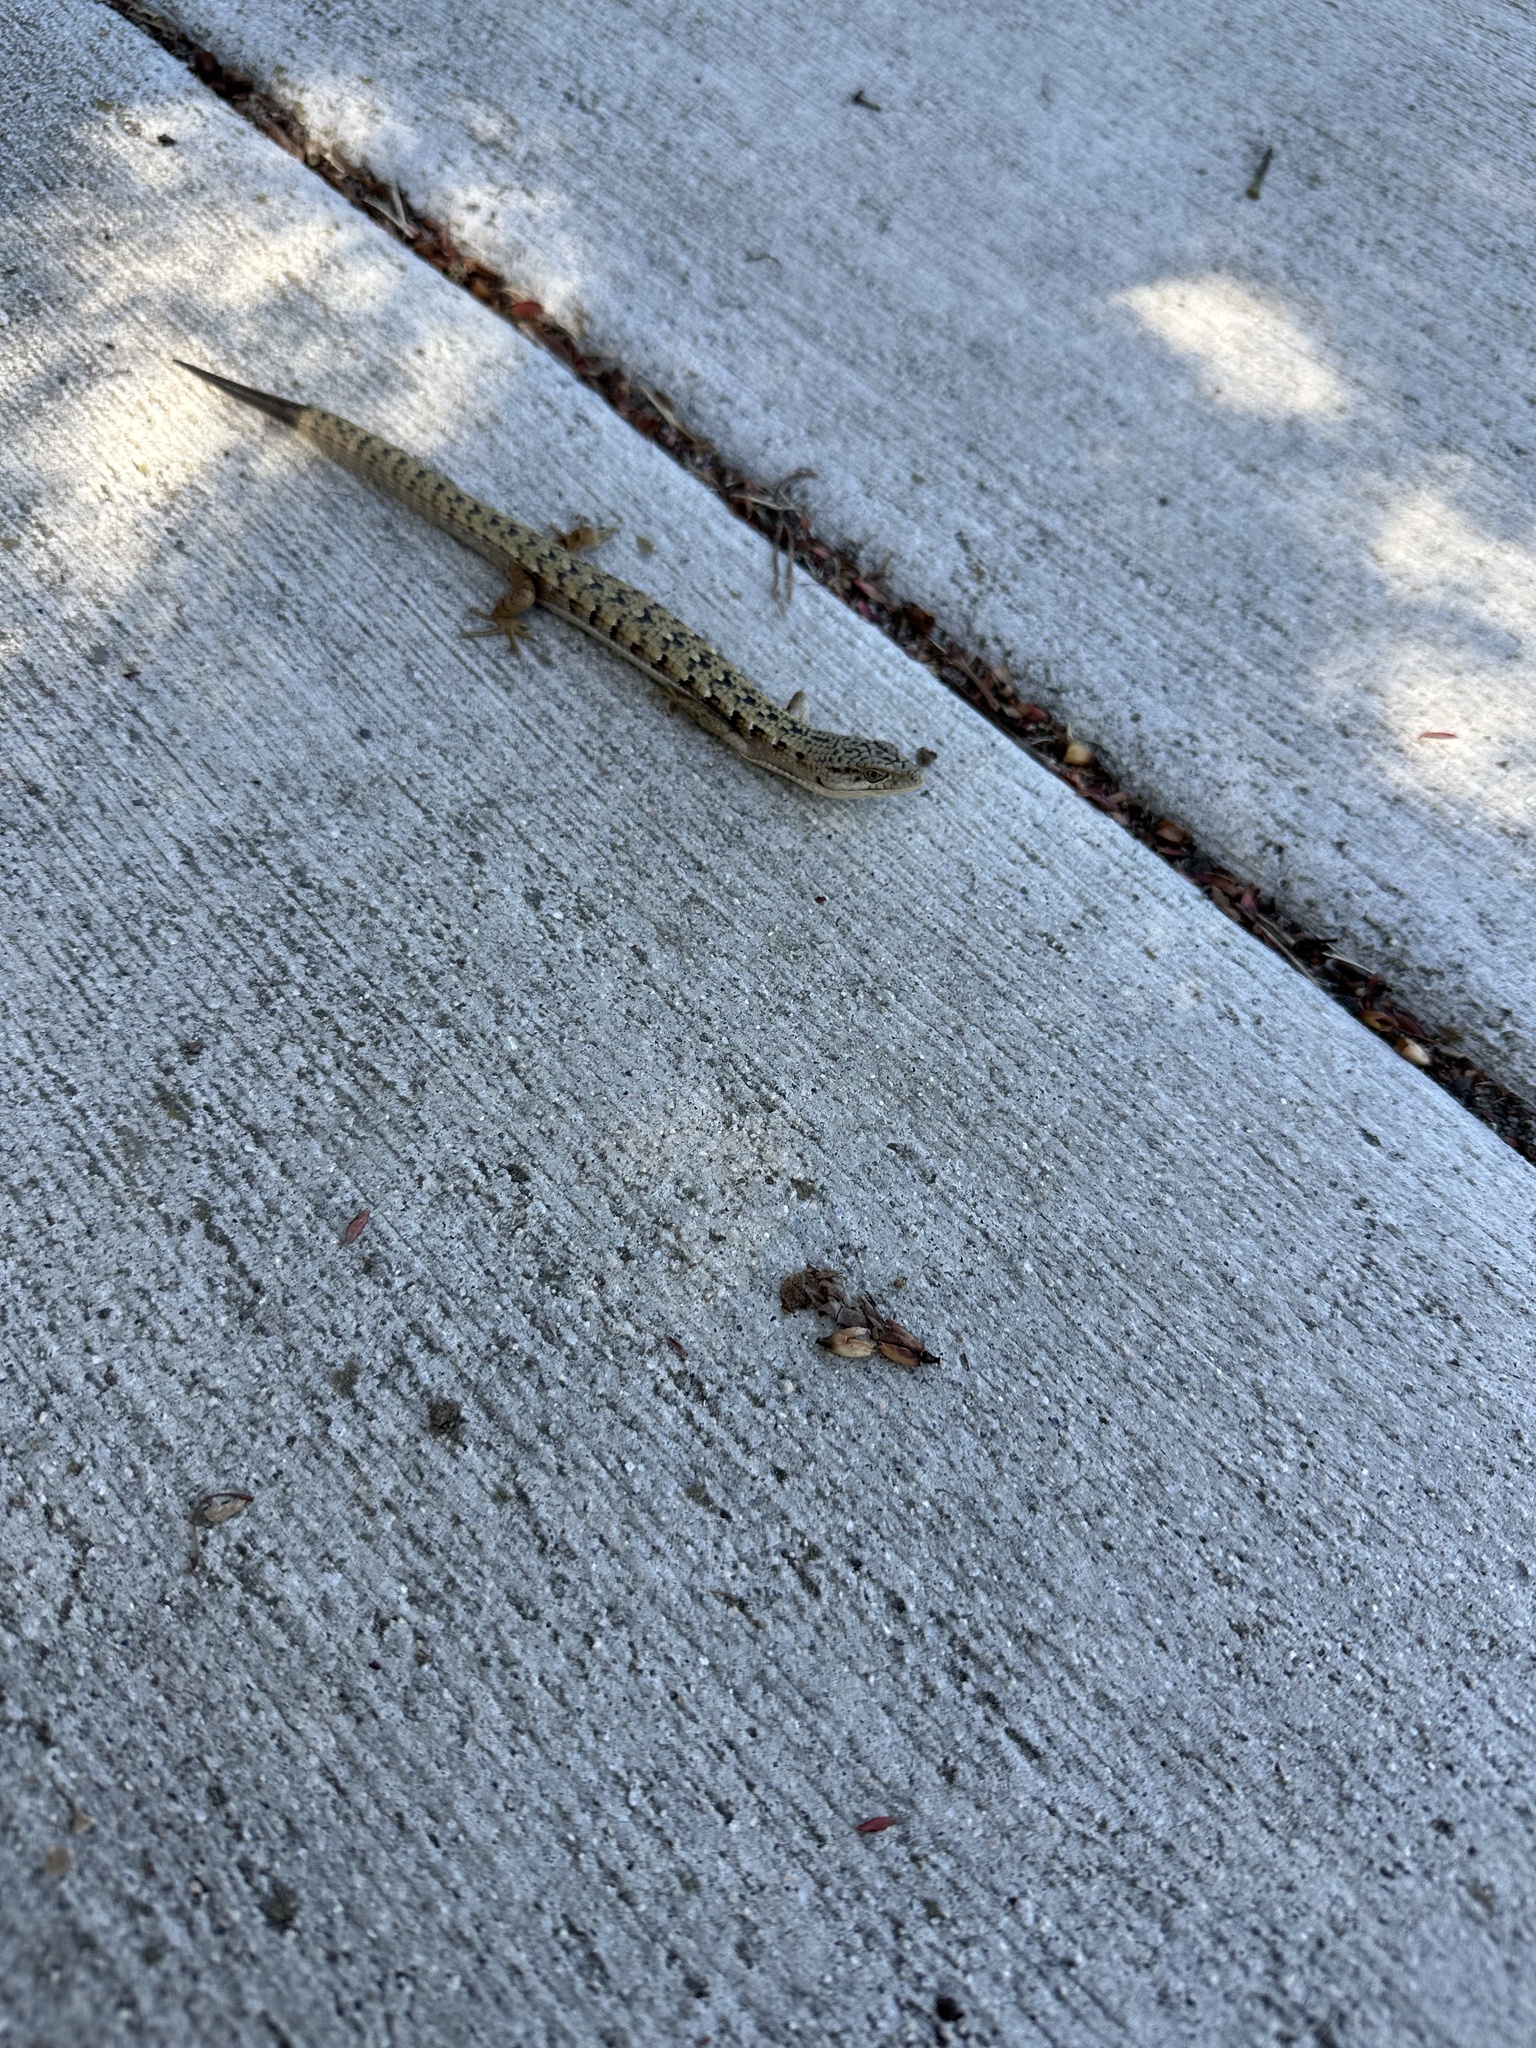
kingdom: Animalia
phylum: Chordata
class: Squamata
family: Anguidae
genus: Elgaria
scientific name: Elgaria multicarinata
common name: Southern alligator lizard
